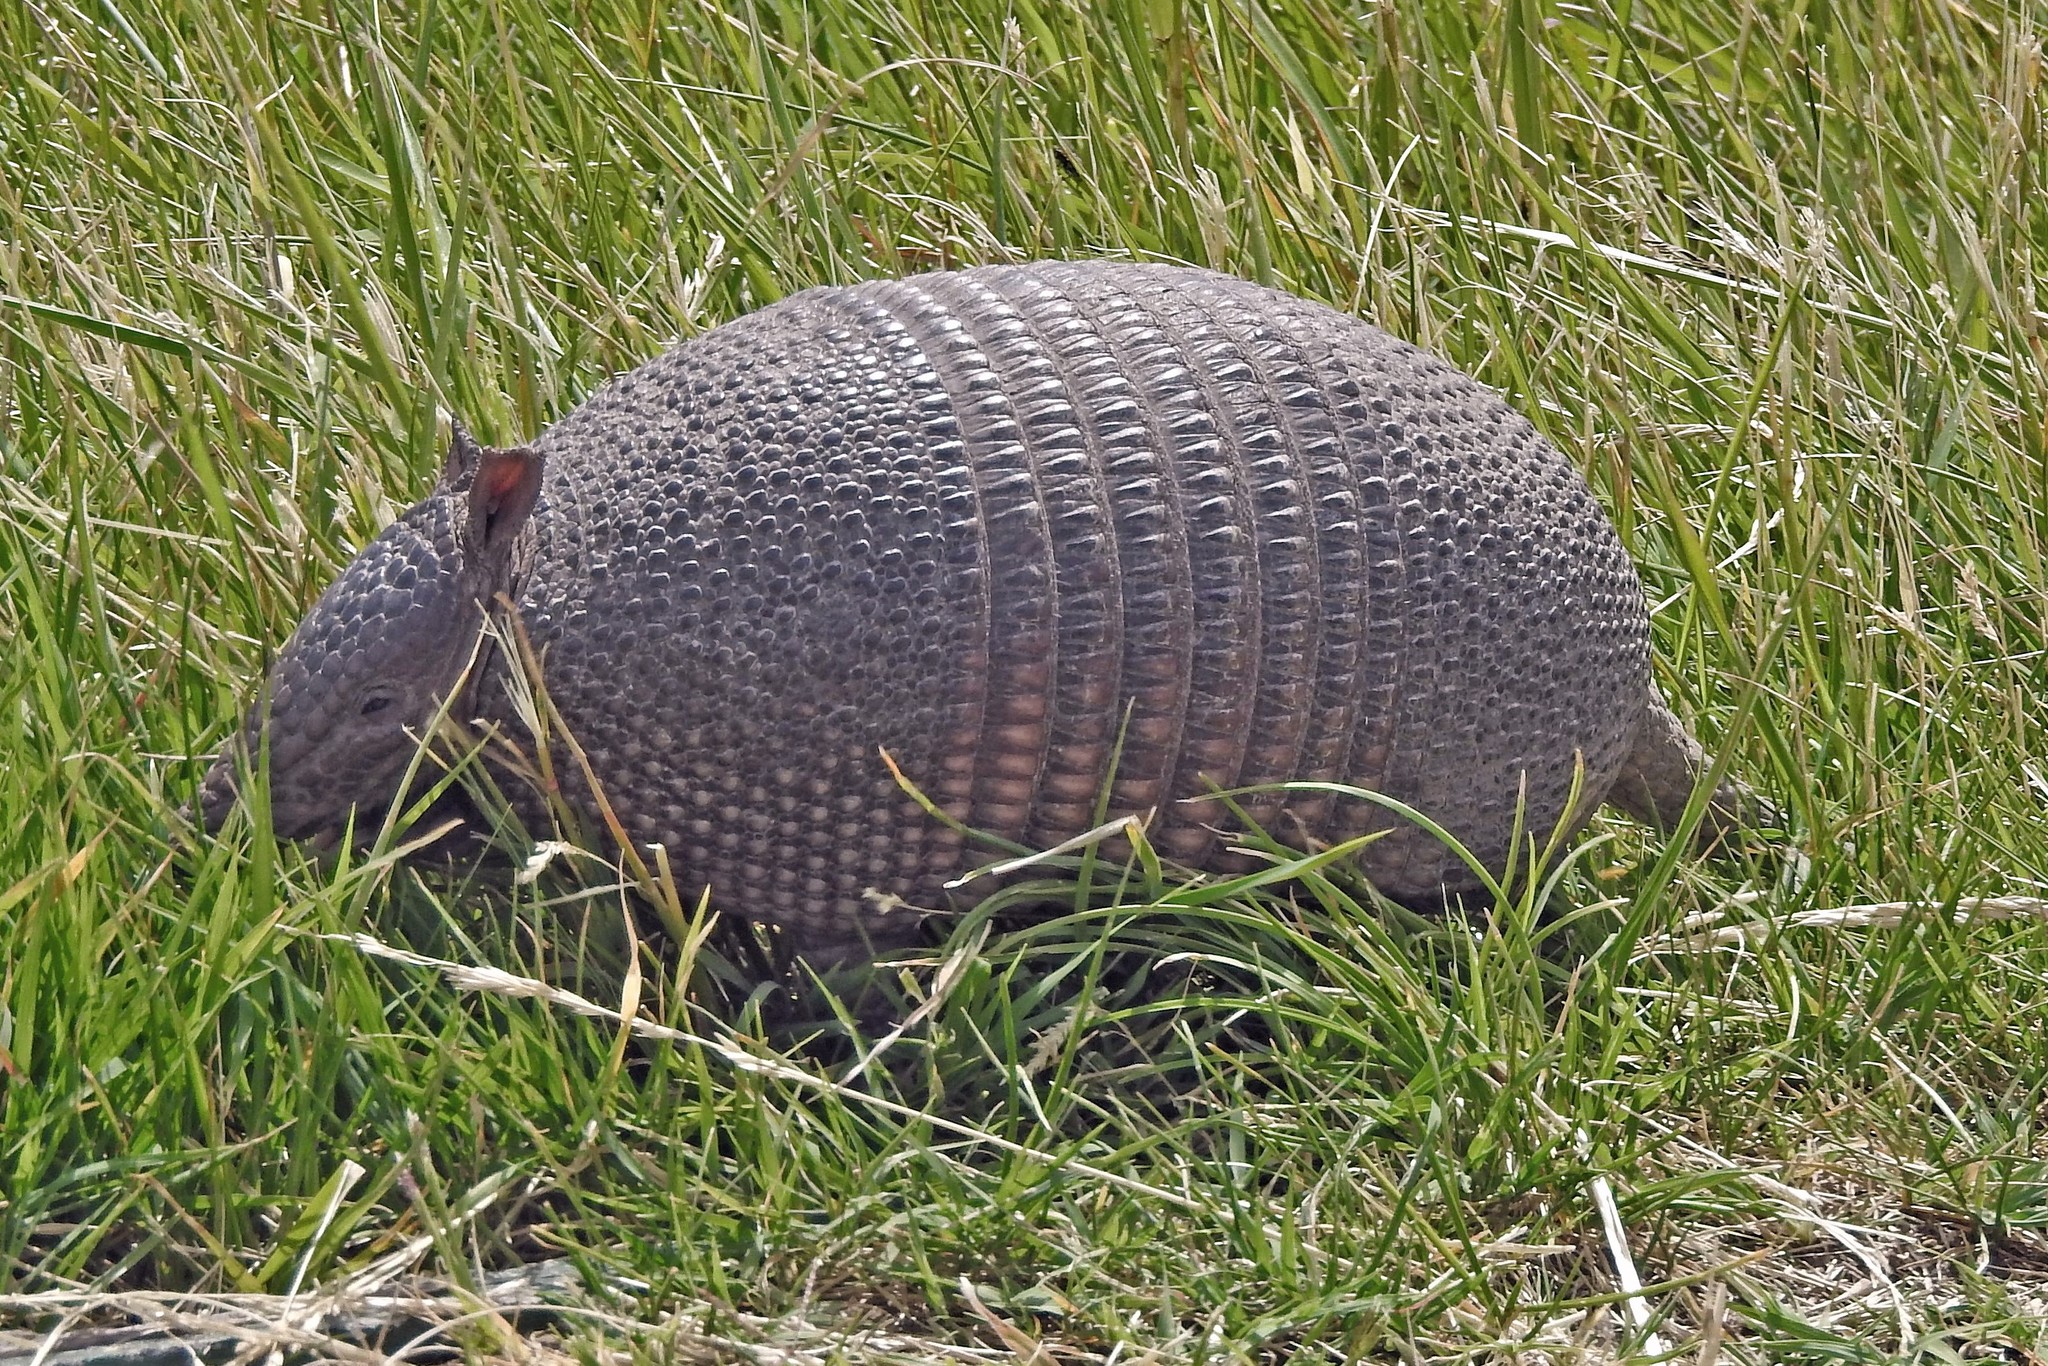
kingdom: Animalia
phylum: Chordata
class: Mammalia
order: Cingulata
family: Dasypodidae
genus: Dasypus
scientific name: Dasypus septemcinctus
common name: Seven-banded armadillo
